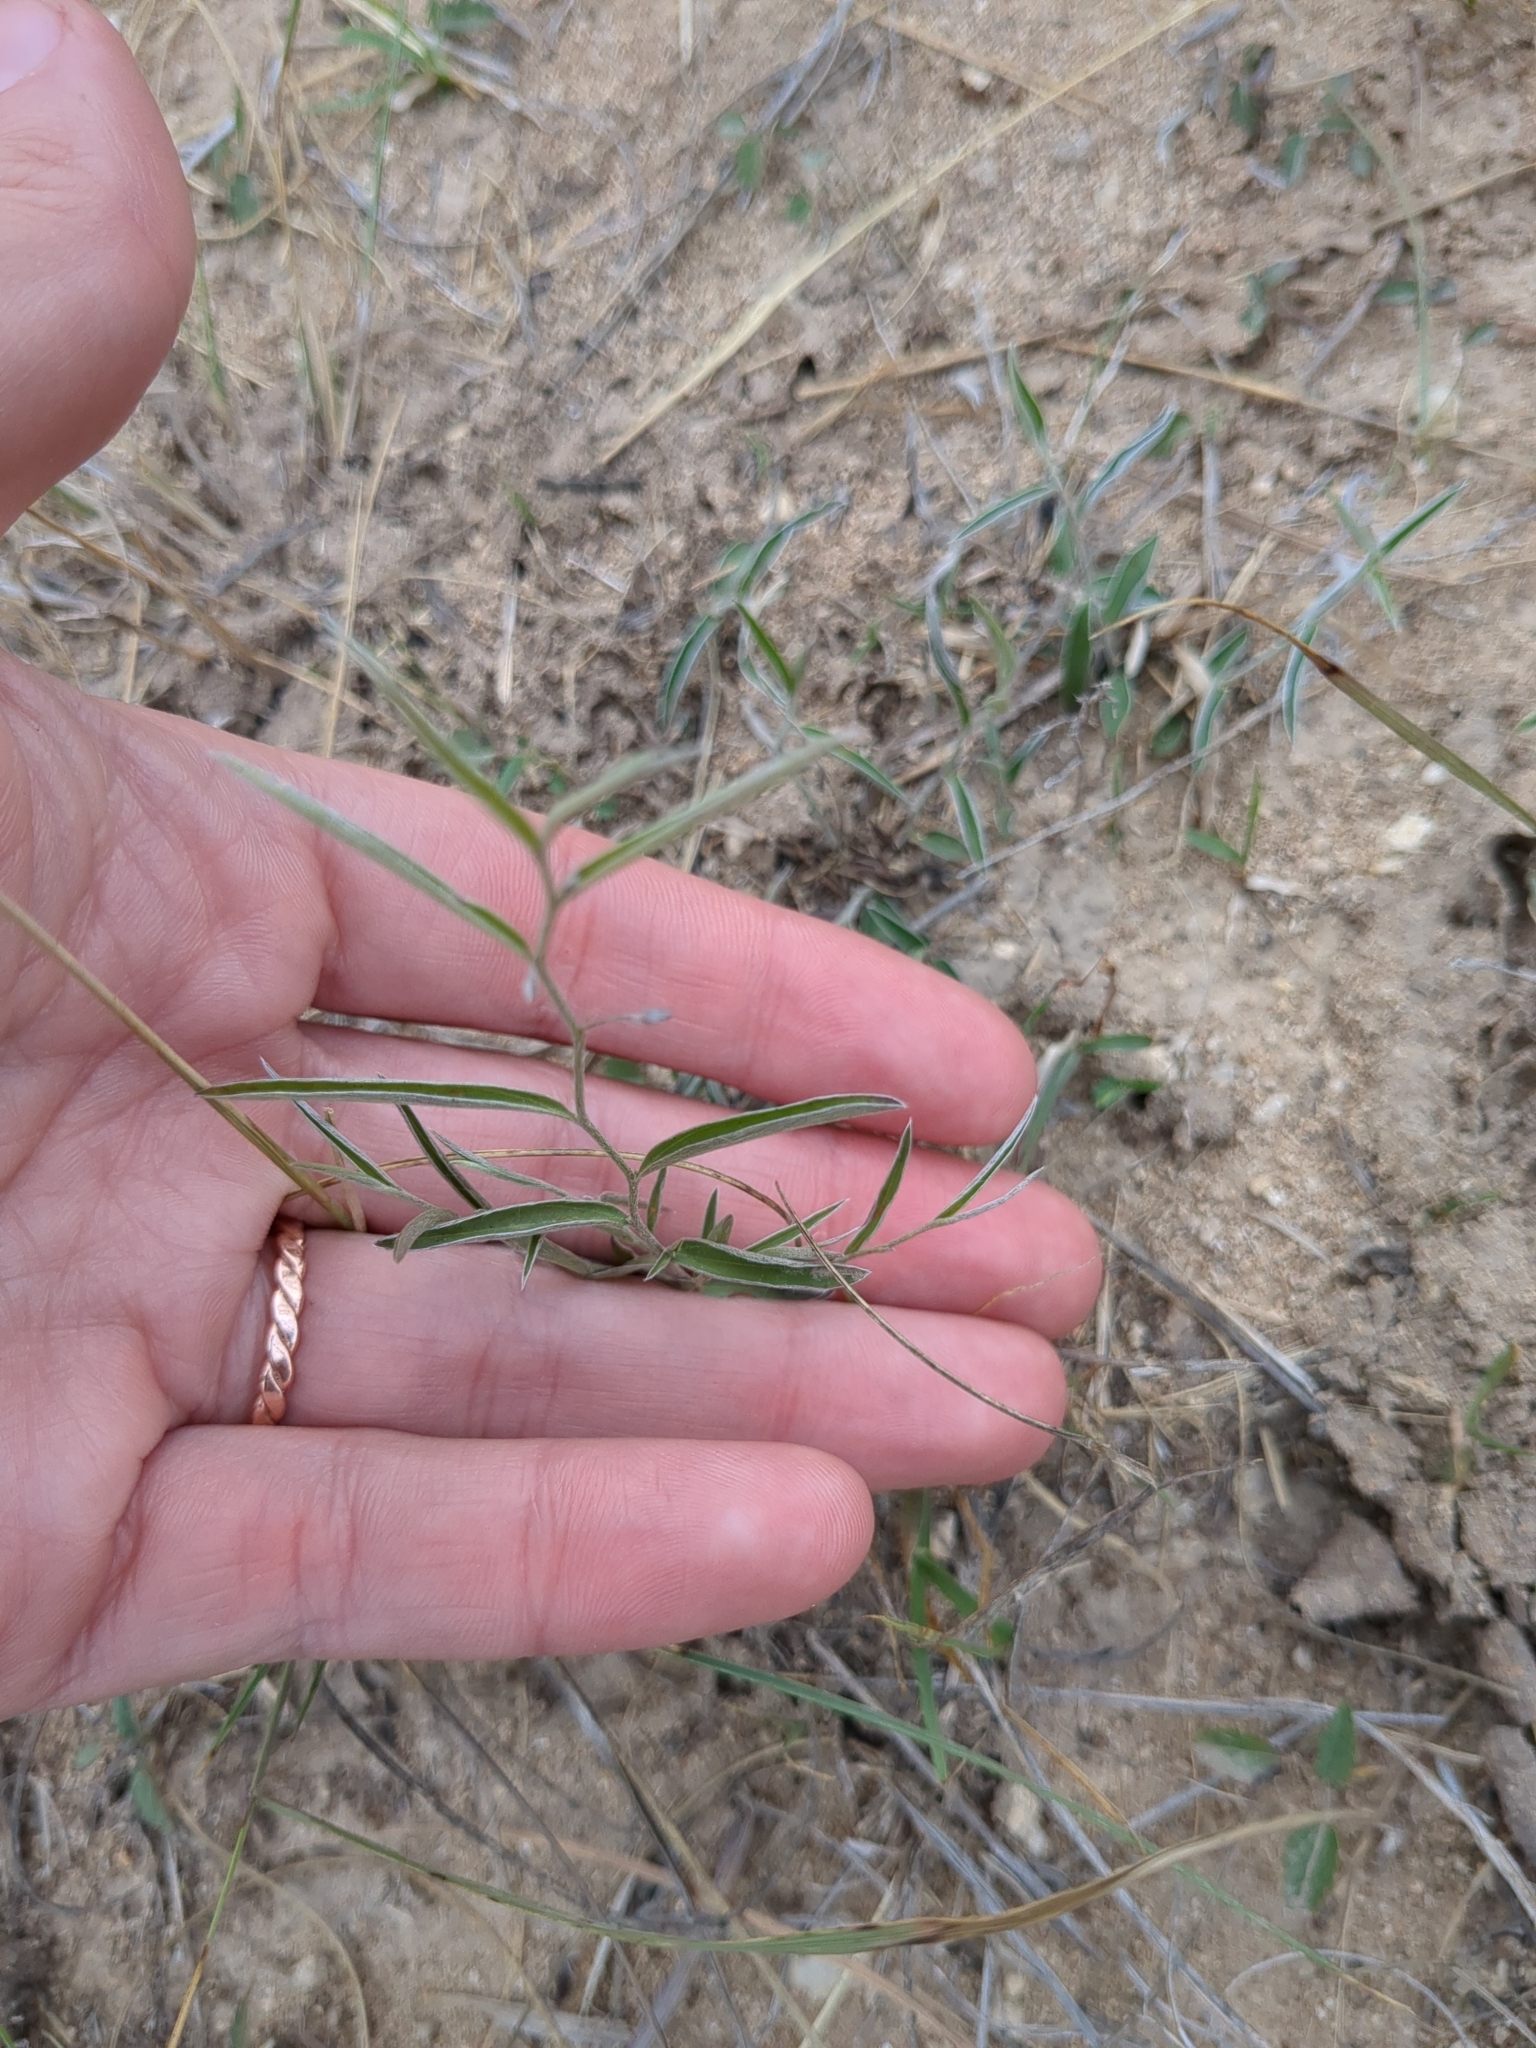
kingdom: Plantae
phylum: Tracheophyta
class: Magnoliopsida
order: Solanales
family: Convolvulaceae
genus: Evolvulus
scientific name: Evolvulus sericeus
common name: Blue dots
